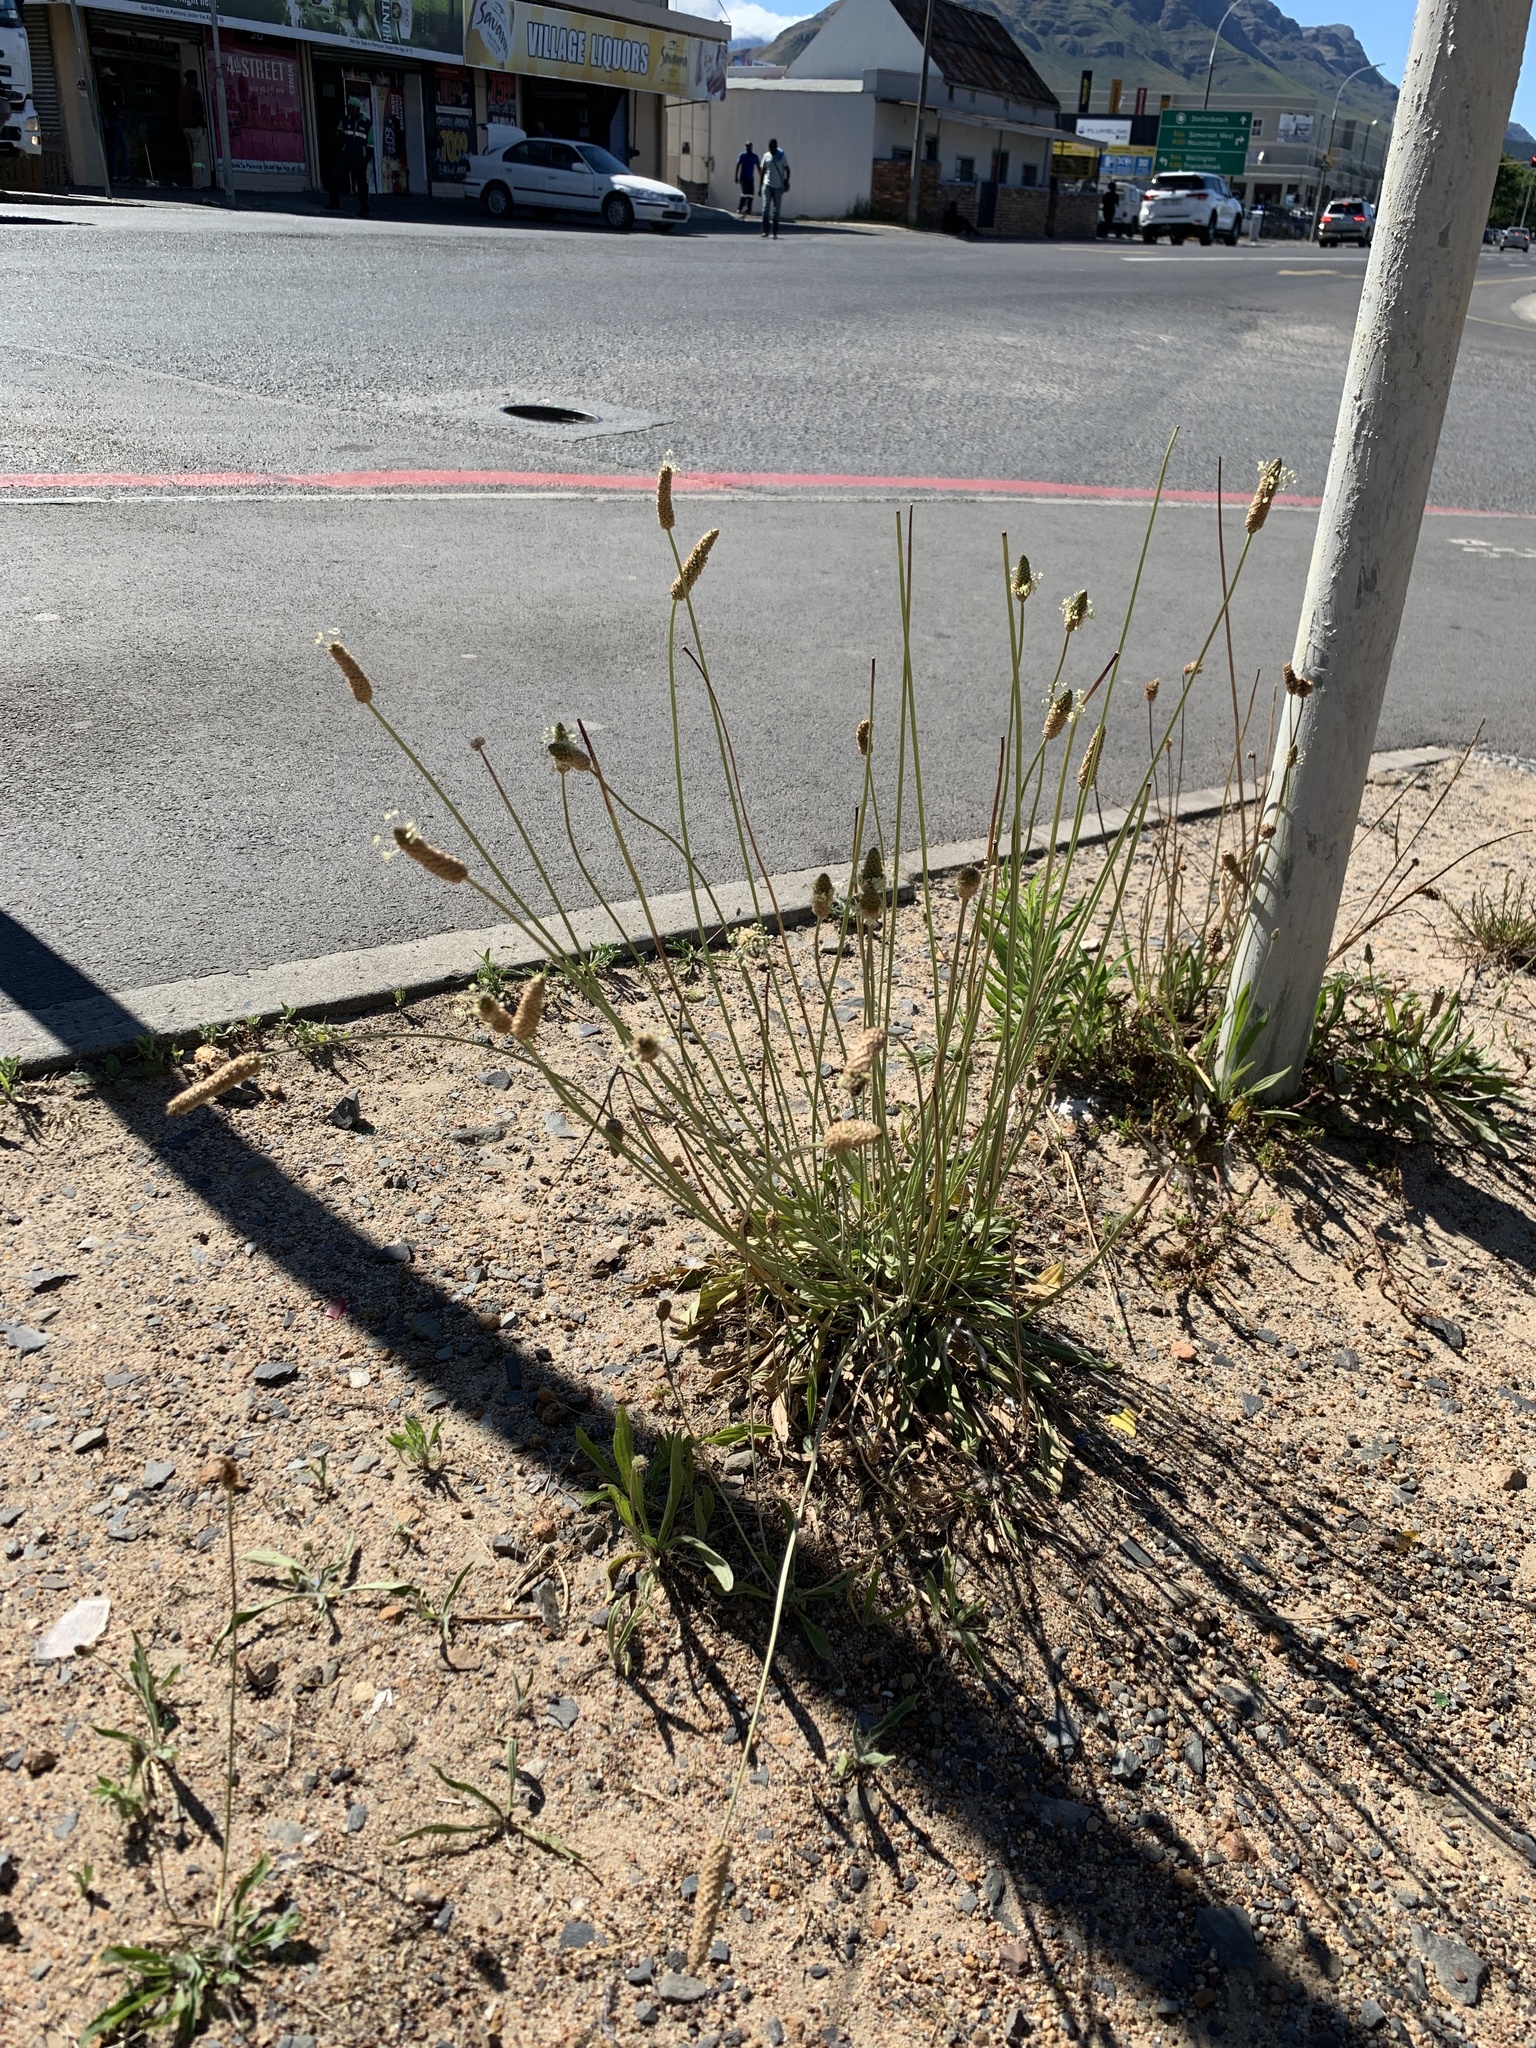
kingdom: Plantae
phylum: Tracheophyta
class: Magnoliopsida
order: Lamiales
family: Plantaginaceae
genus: Plantago
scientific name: Plantago lanceolata
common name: Ribwort plantain
